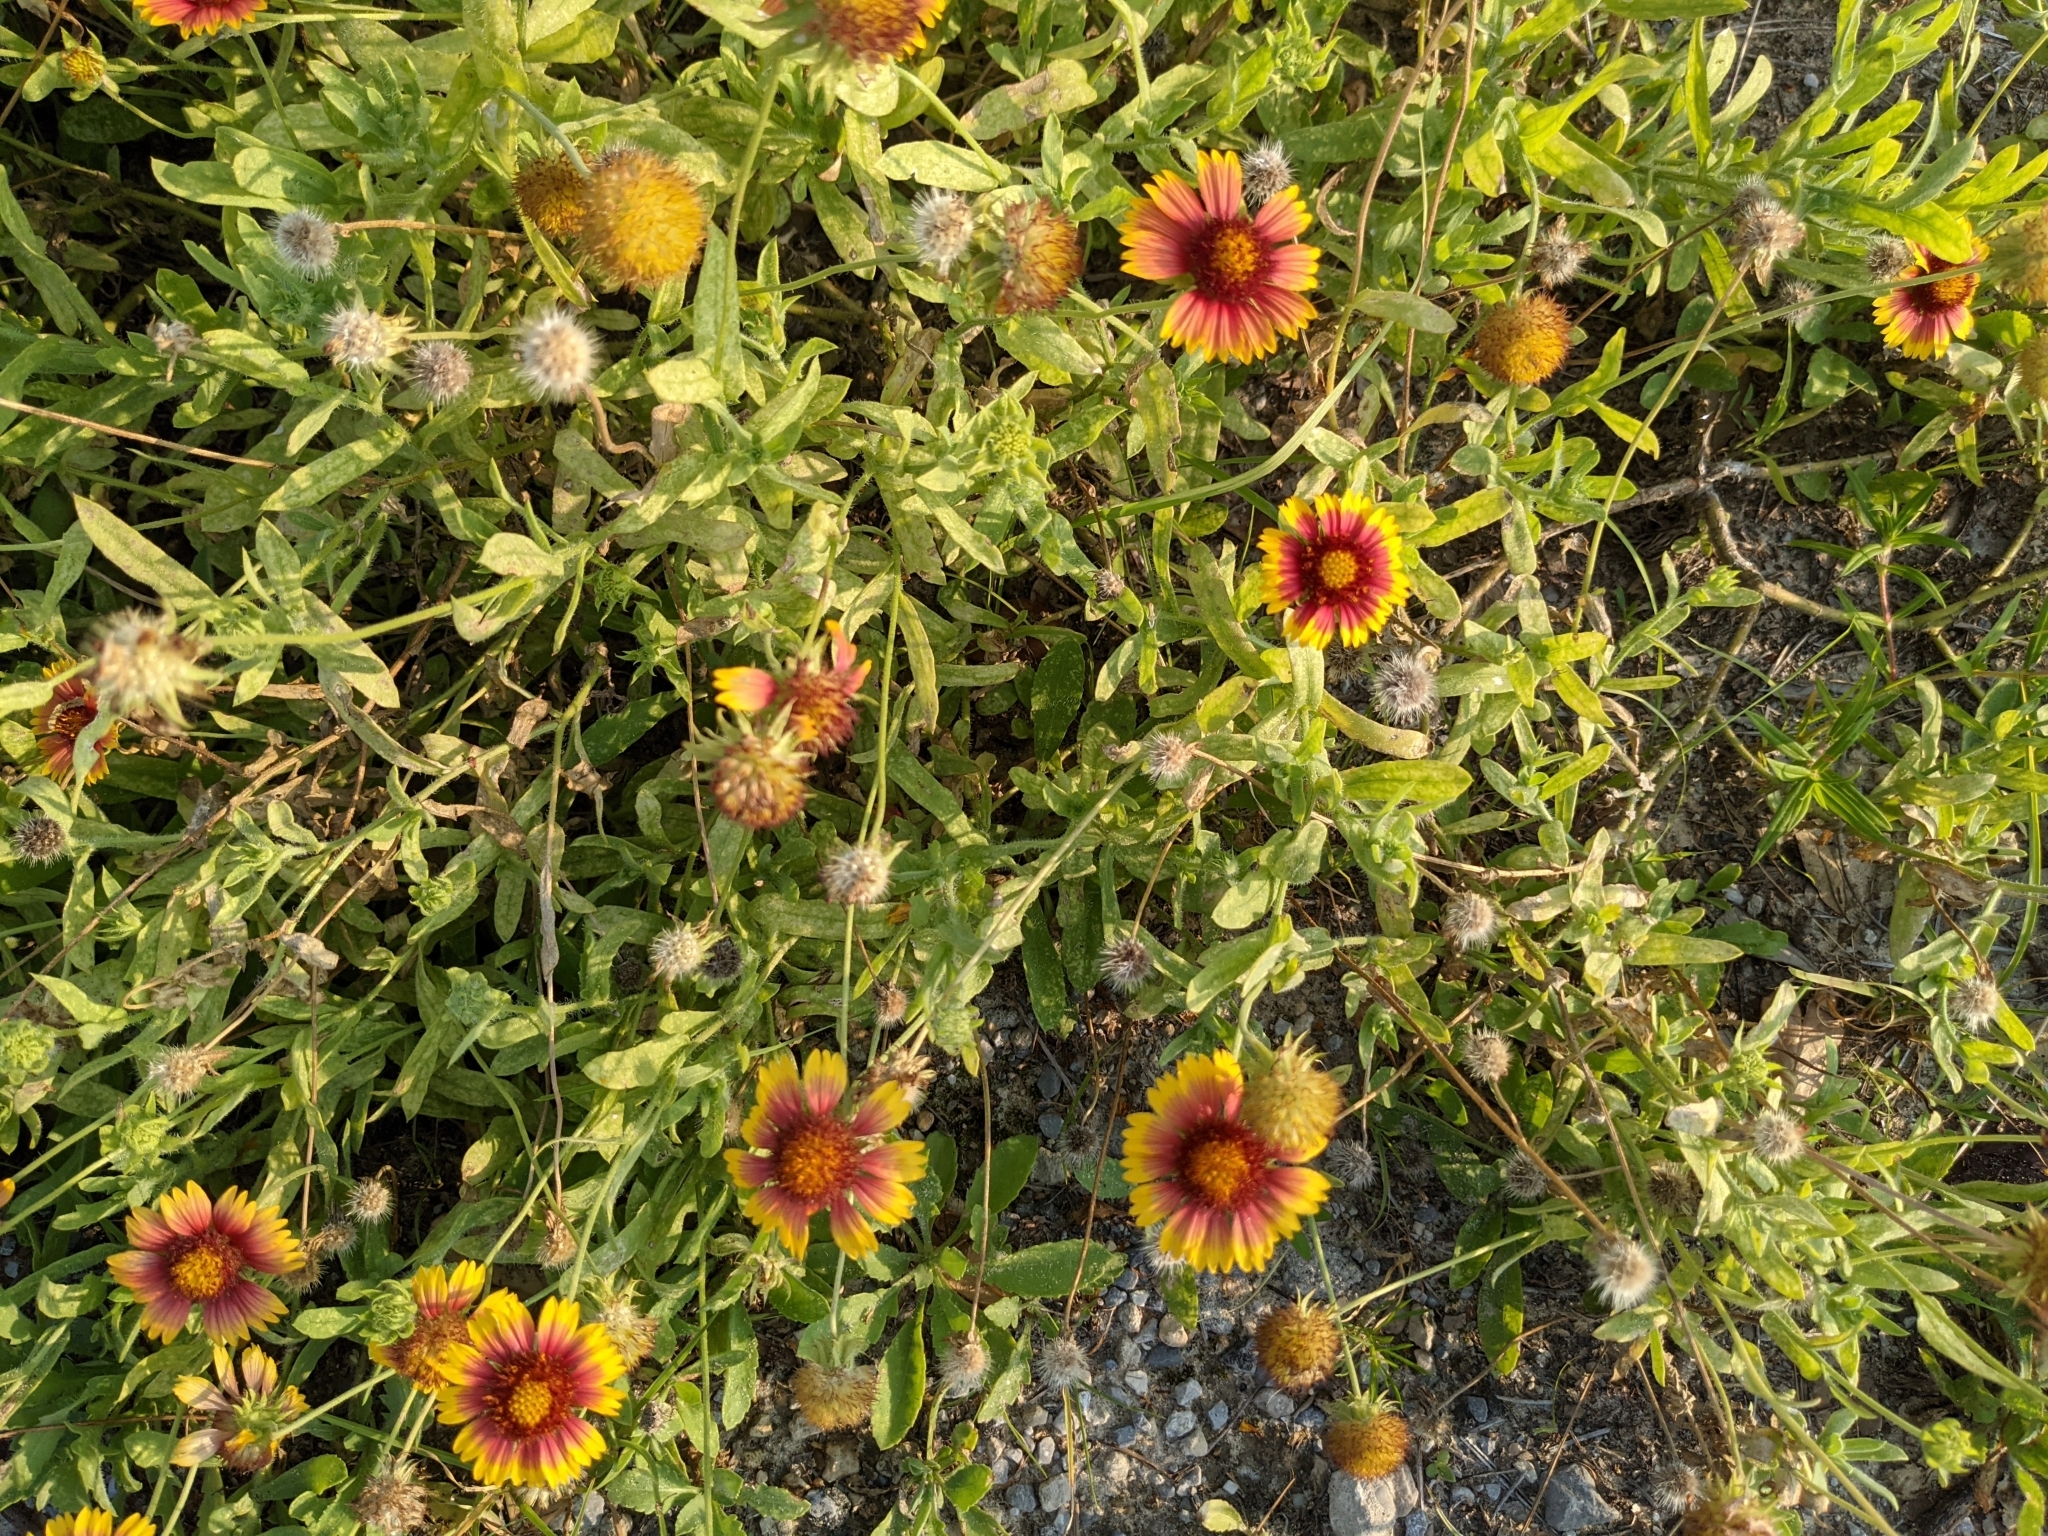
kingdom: Plantae
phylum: Tracheophyta
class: Magnoliopsida
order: Asterales
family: Asteraceae
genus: Gaillardia
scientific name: Gaillardia pulchella
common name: Firewheel
